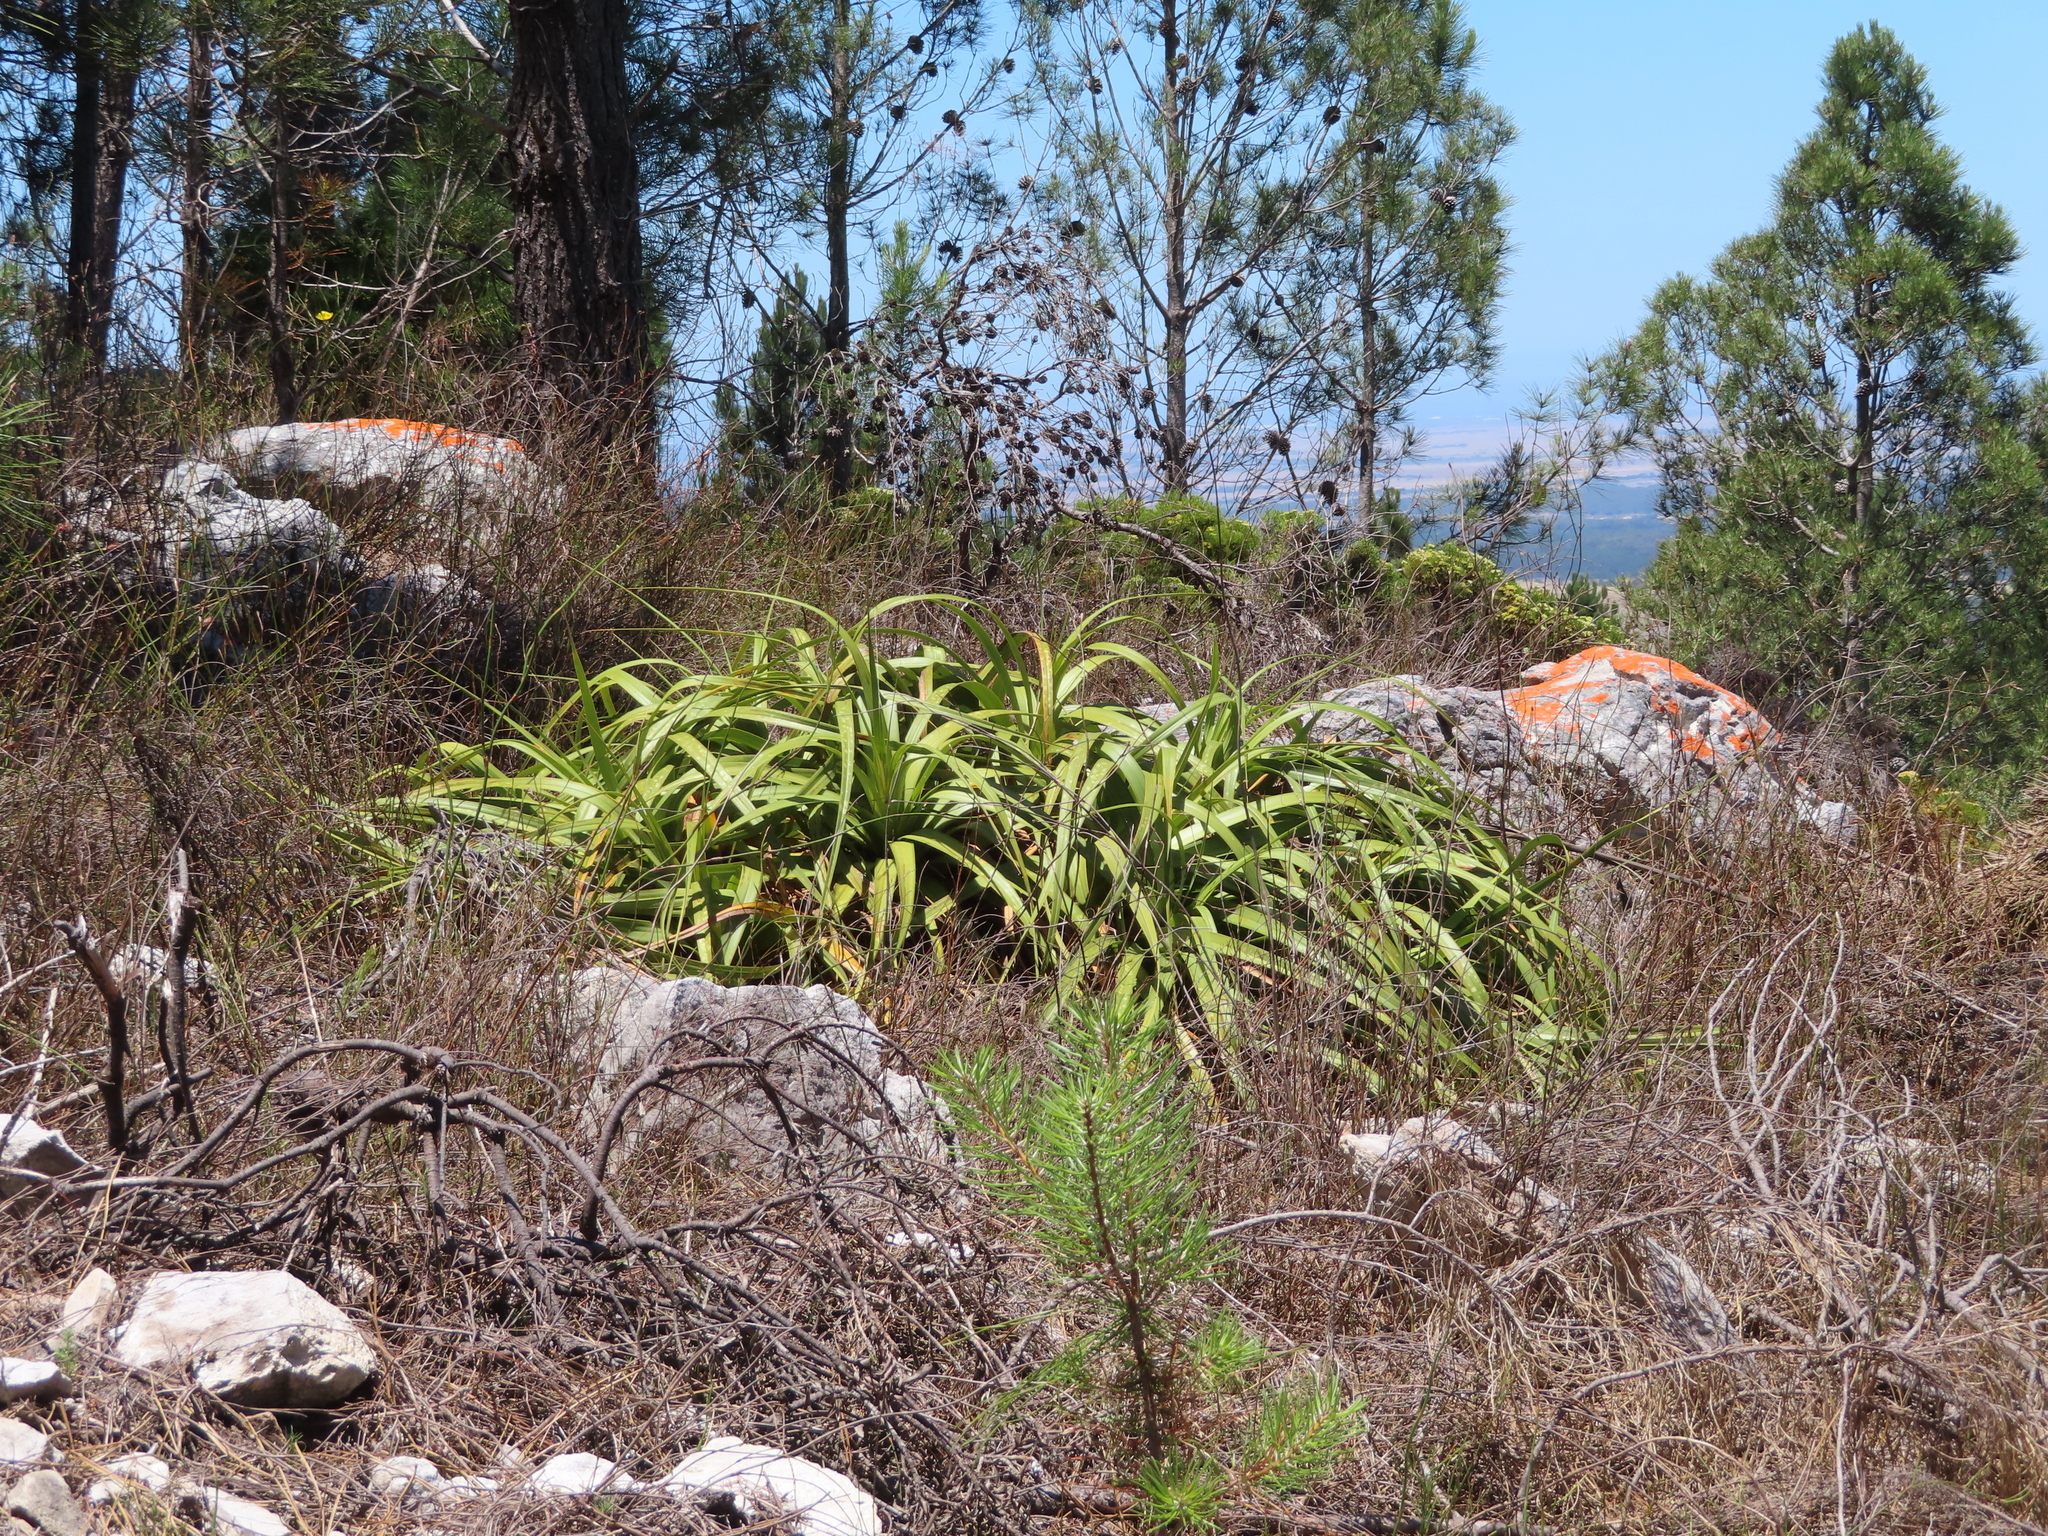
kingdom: Plantae
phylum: Tracheophyta
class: Liliopsida
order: Poales
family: Cyperaceae
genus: Tetraria
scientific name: Tetraria thermalis
